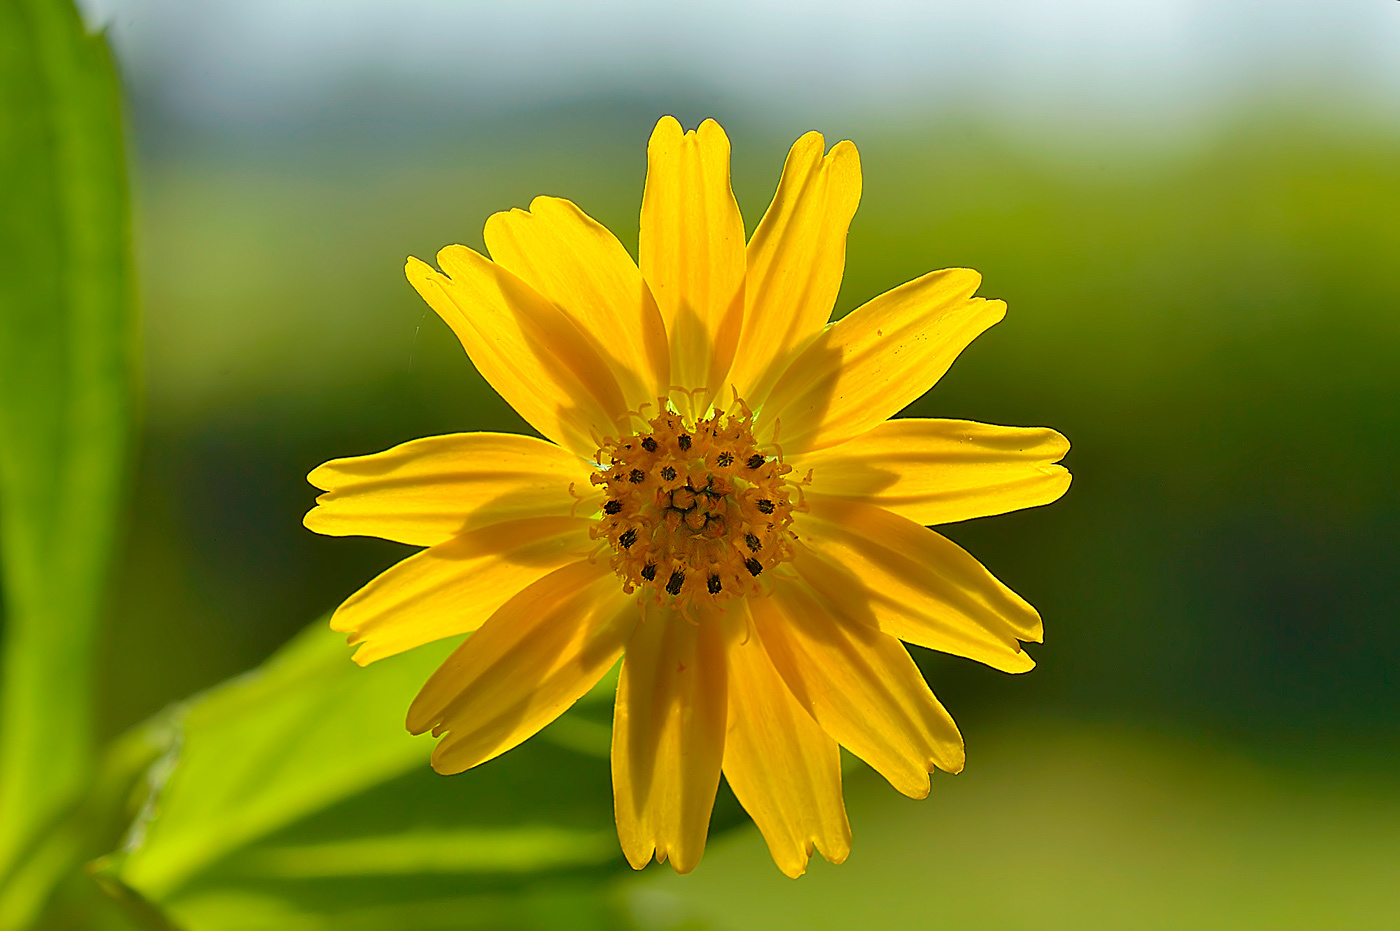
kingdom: Plantae
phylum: Tracheophyta
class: Magnoliopsida
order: Asterales
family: Asteraceae
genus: Sphagneticola
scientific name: Sphagneticola trilobata
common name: Bay biscayne creeping-oxeye
